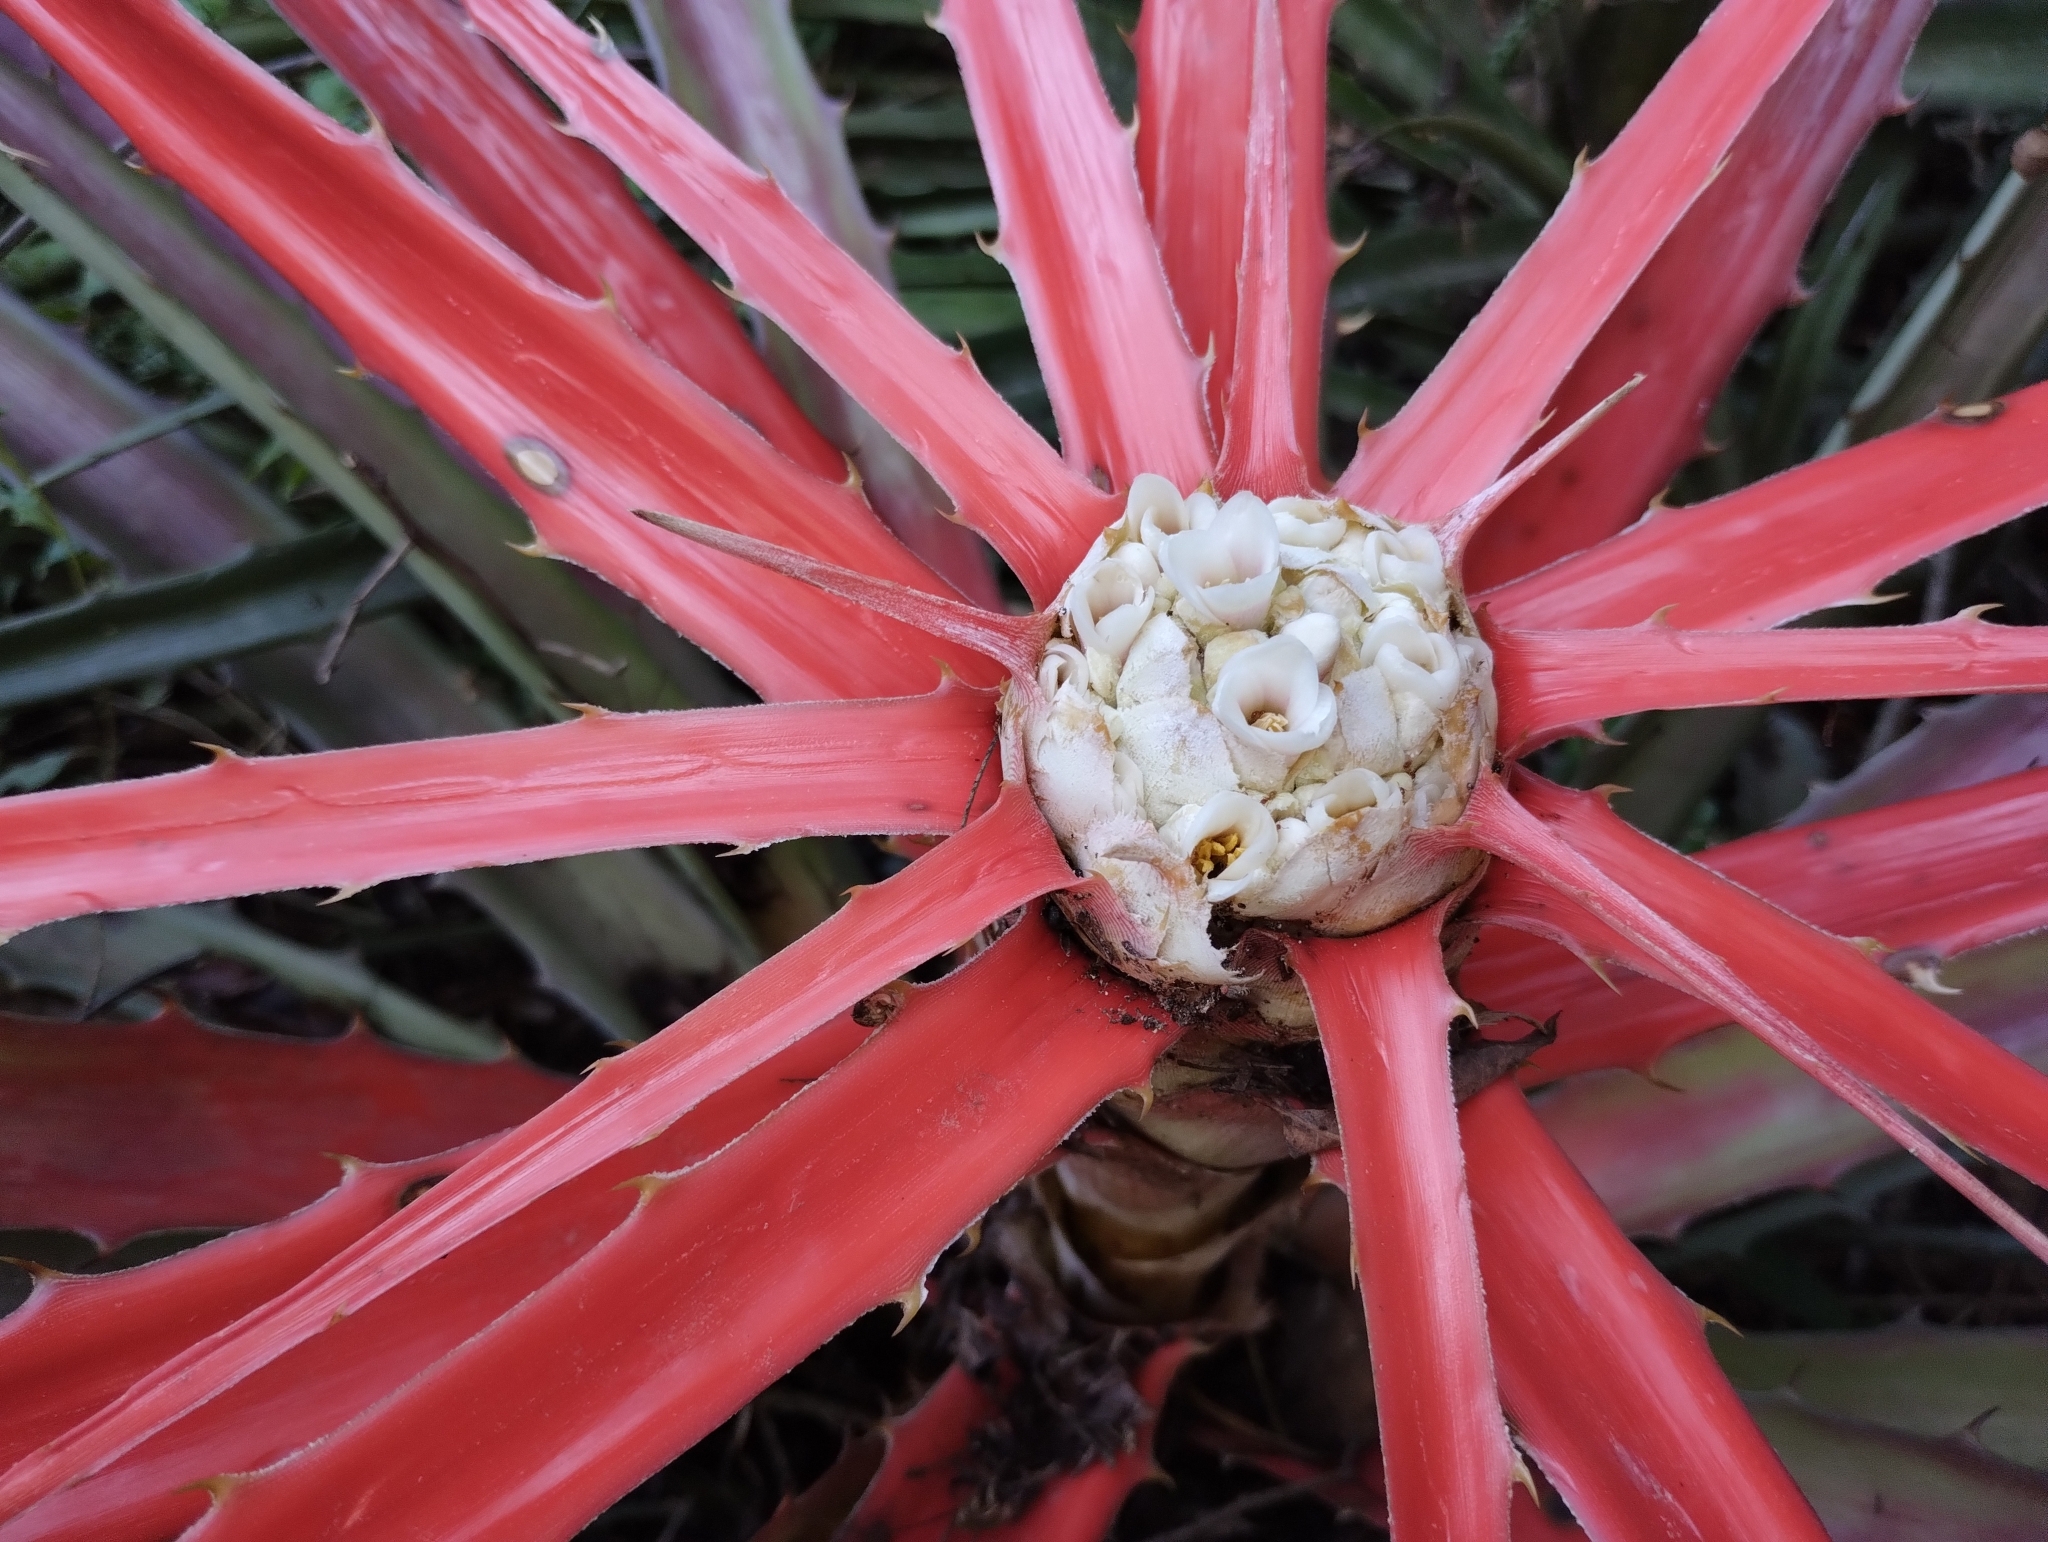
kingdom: Plantae
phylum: Tracheophyta
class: Liliopsida
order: Poales
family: Bromeliaceae
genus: Bromelia
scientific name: Bromelia balansae
